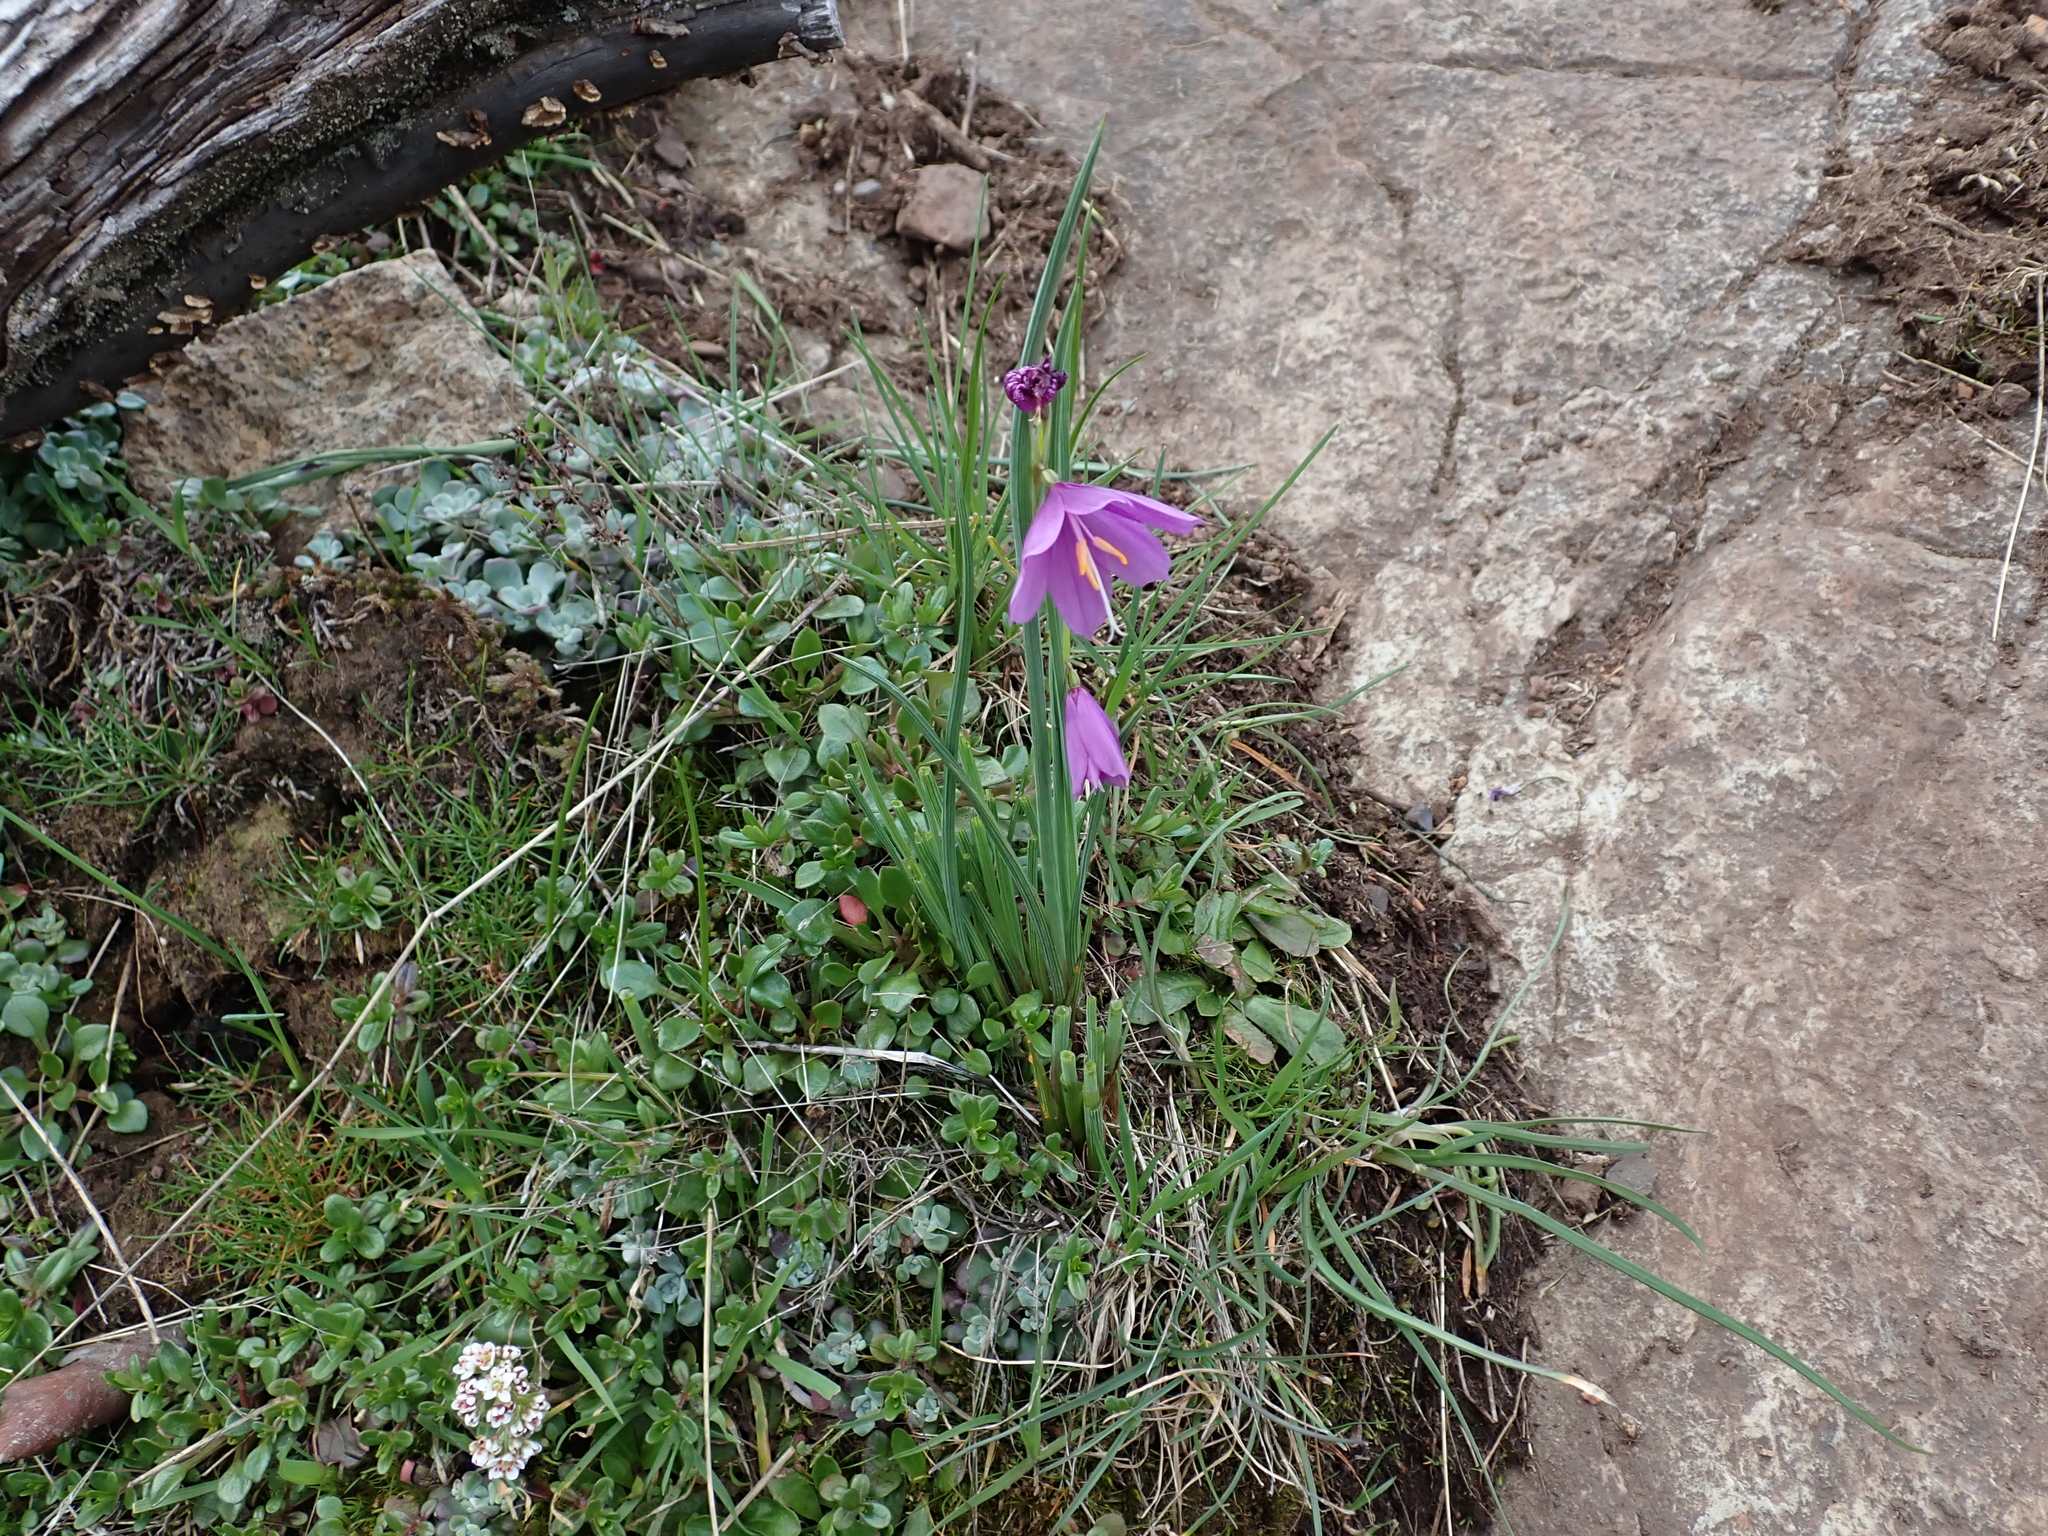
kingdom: Plantae
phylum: Tracheophyta
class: Liliopsida
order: Asparagales
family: Iridaceae
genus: Olsynium
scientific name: Olsynium douglasii
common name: Douglas' grasswidow
